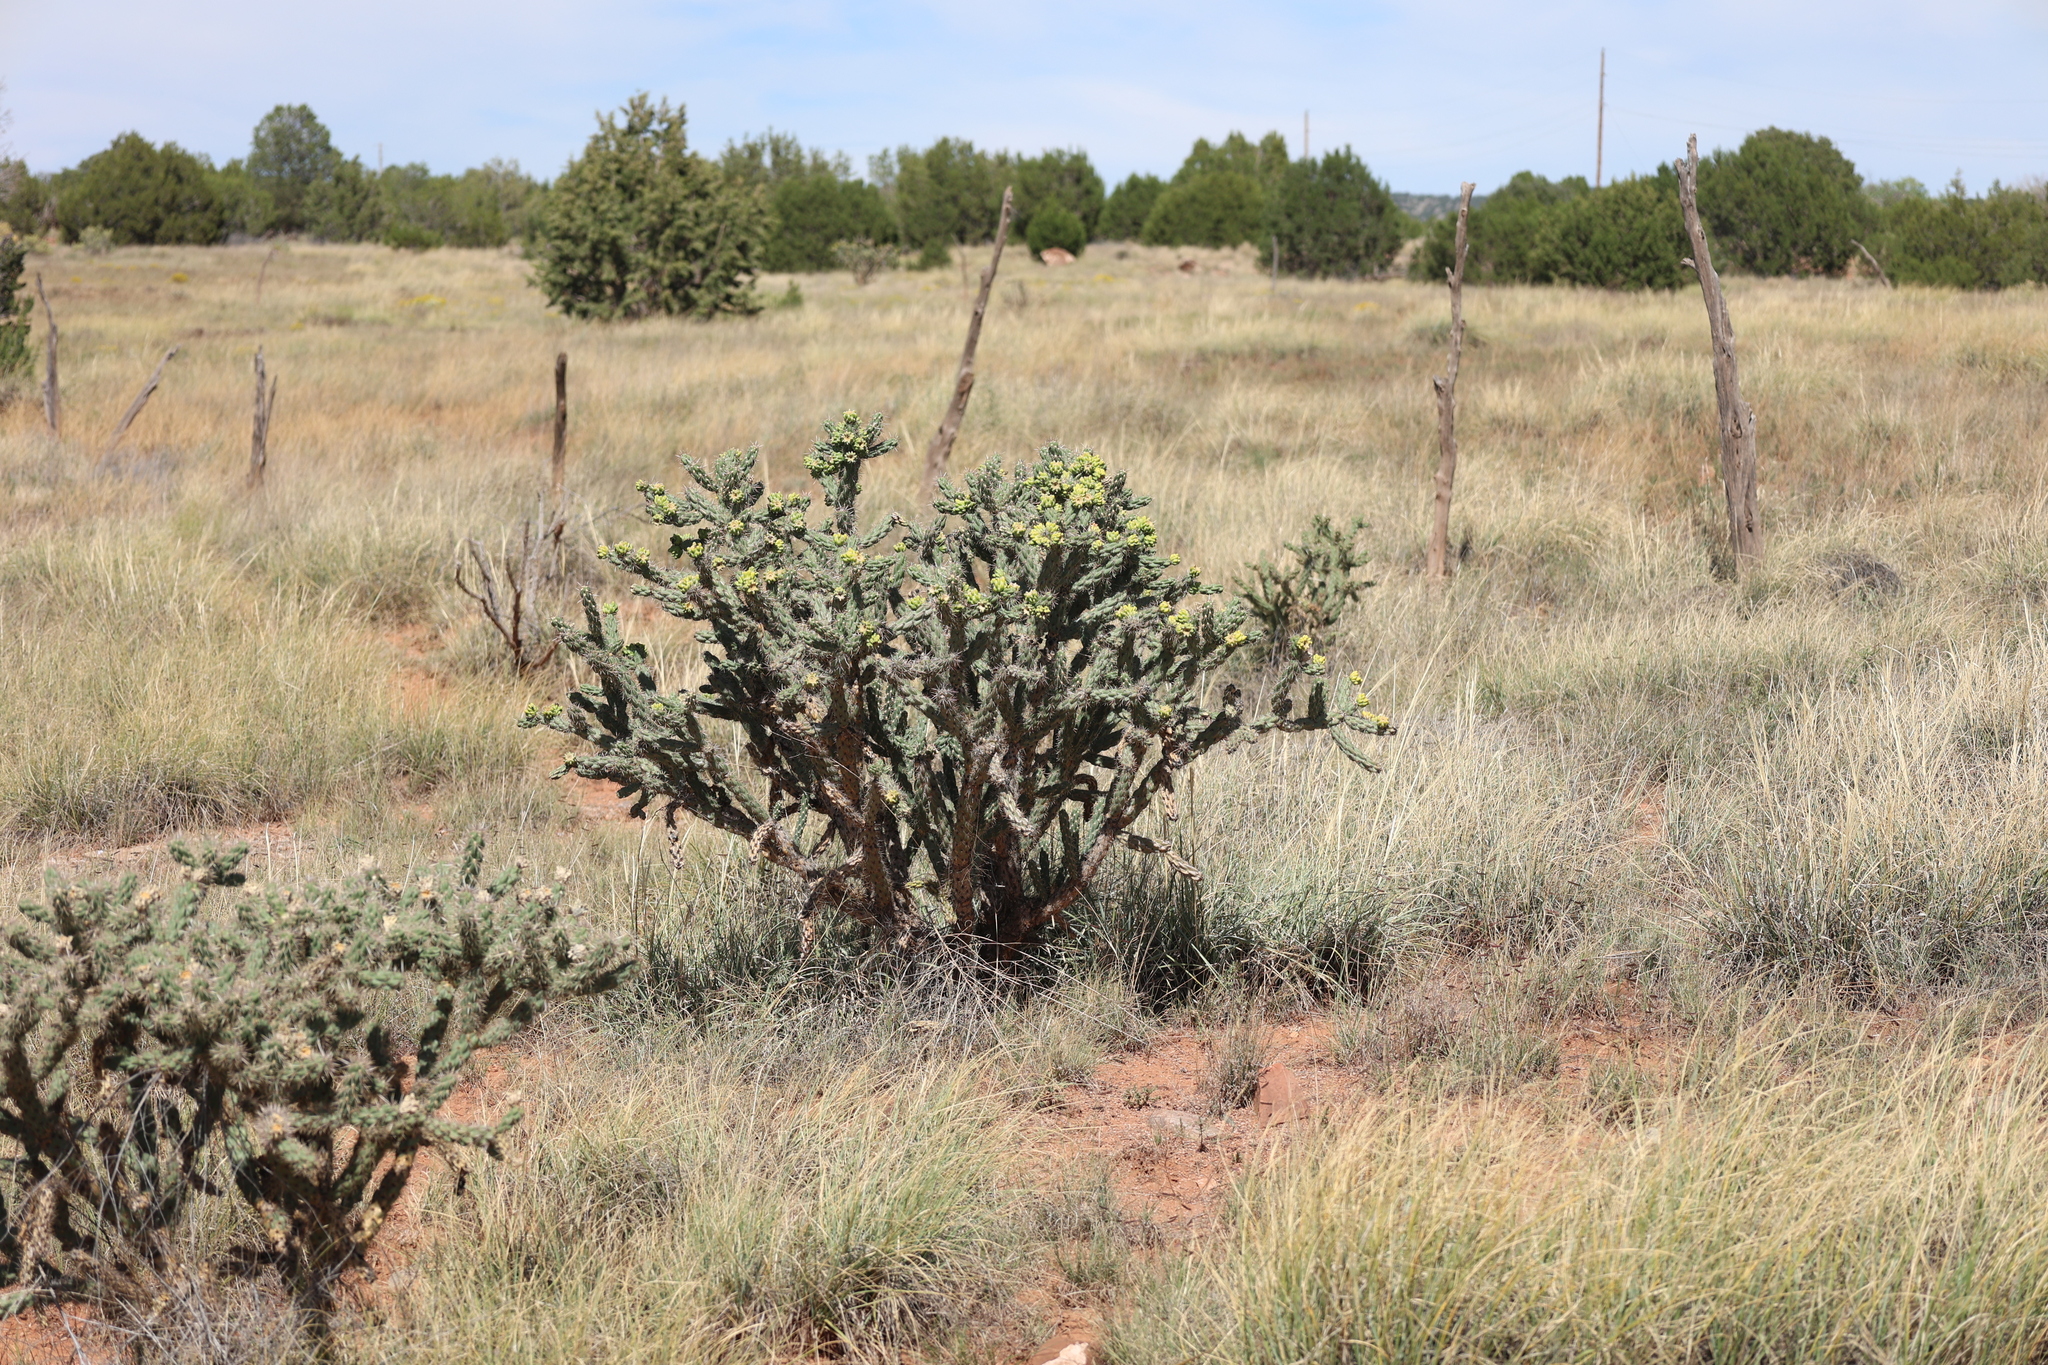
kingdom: Plantae
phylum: Tracheophyta
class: Magnoliopsida
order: Caryophyllales
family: Cactaceae
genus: Cylindropuntia
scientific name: Cylindropuntia imbricata
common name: Candelabrum cactus
